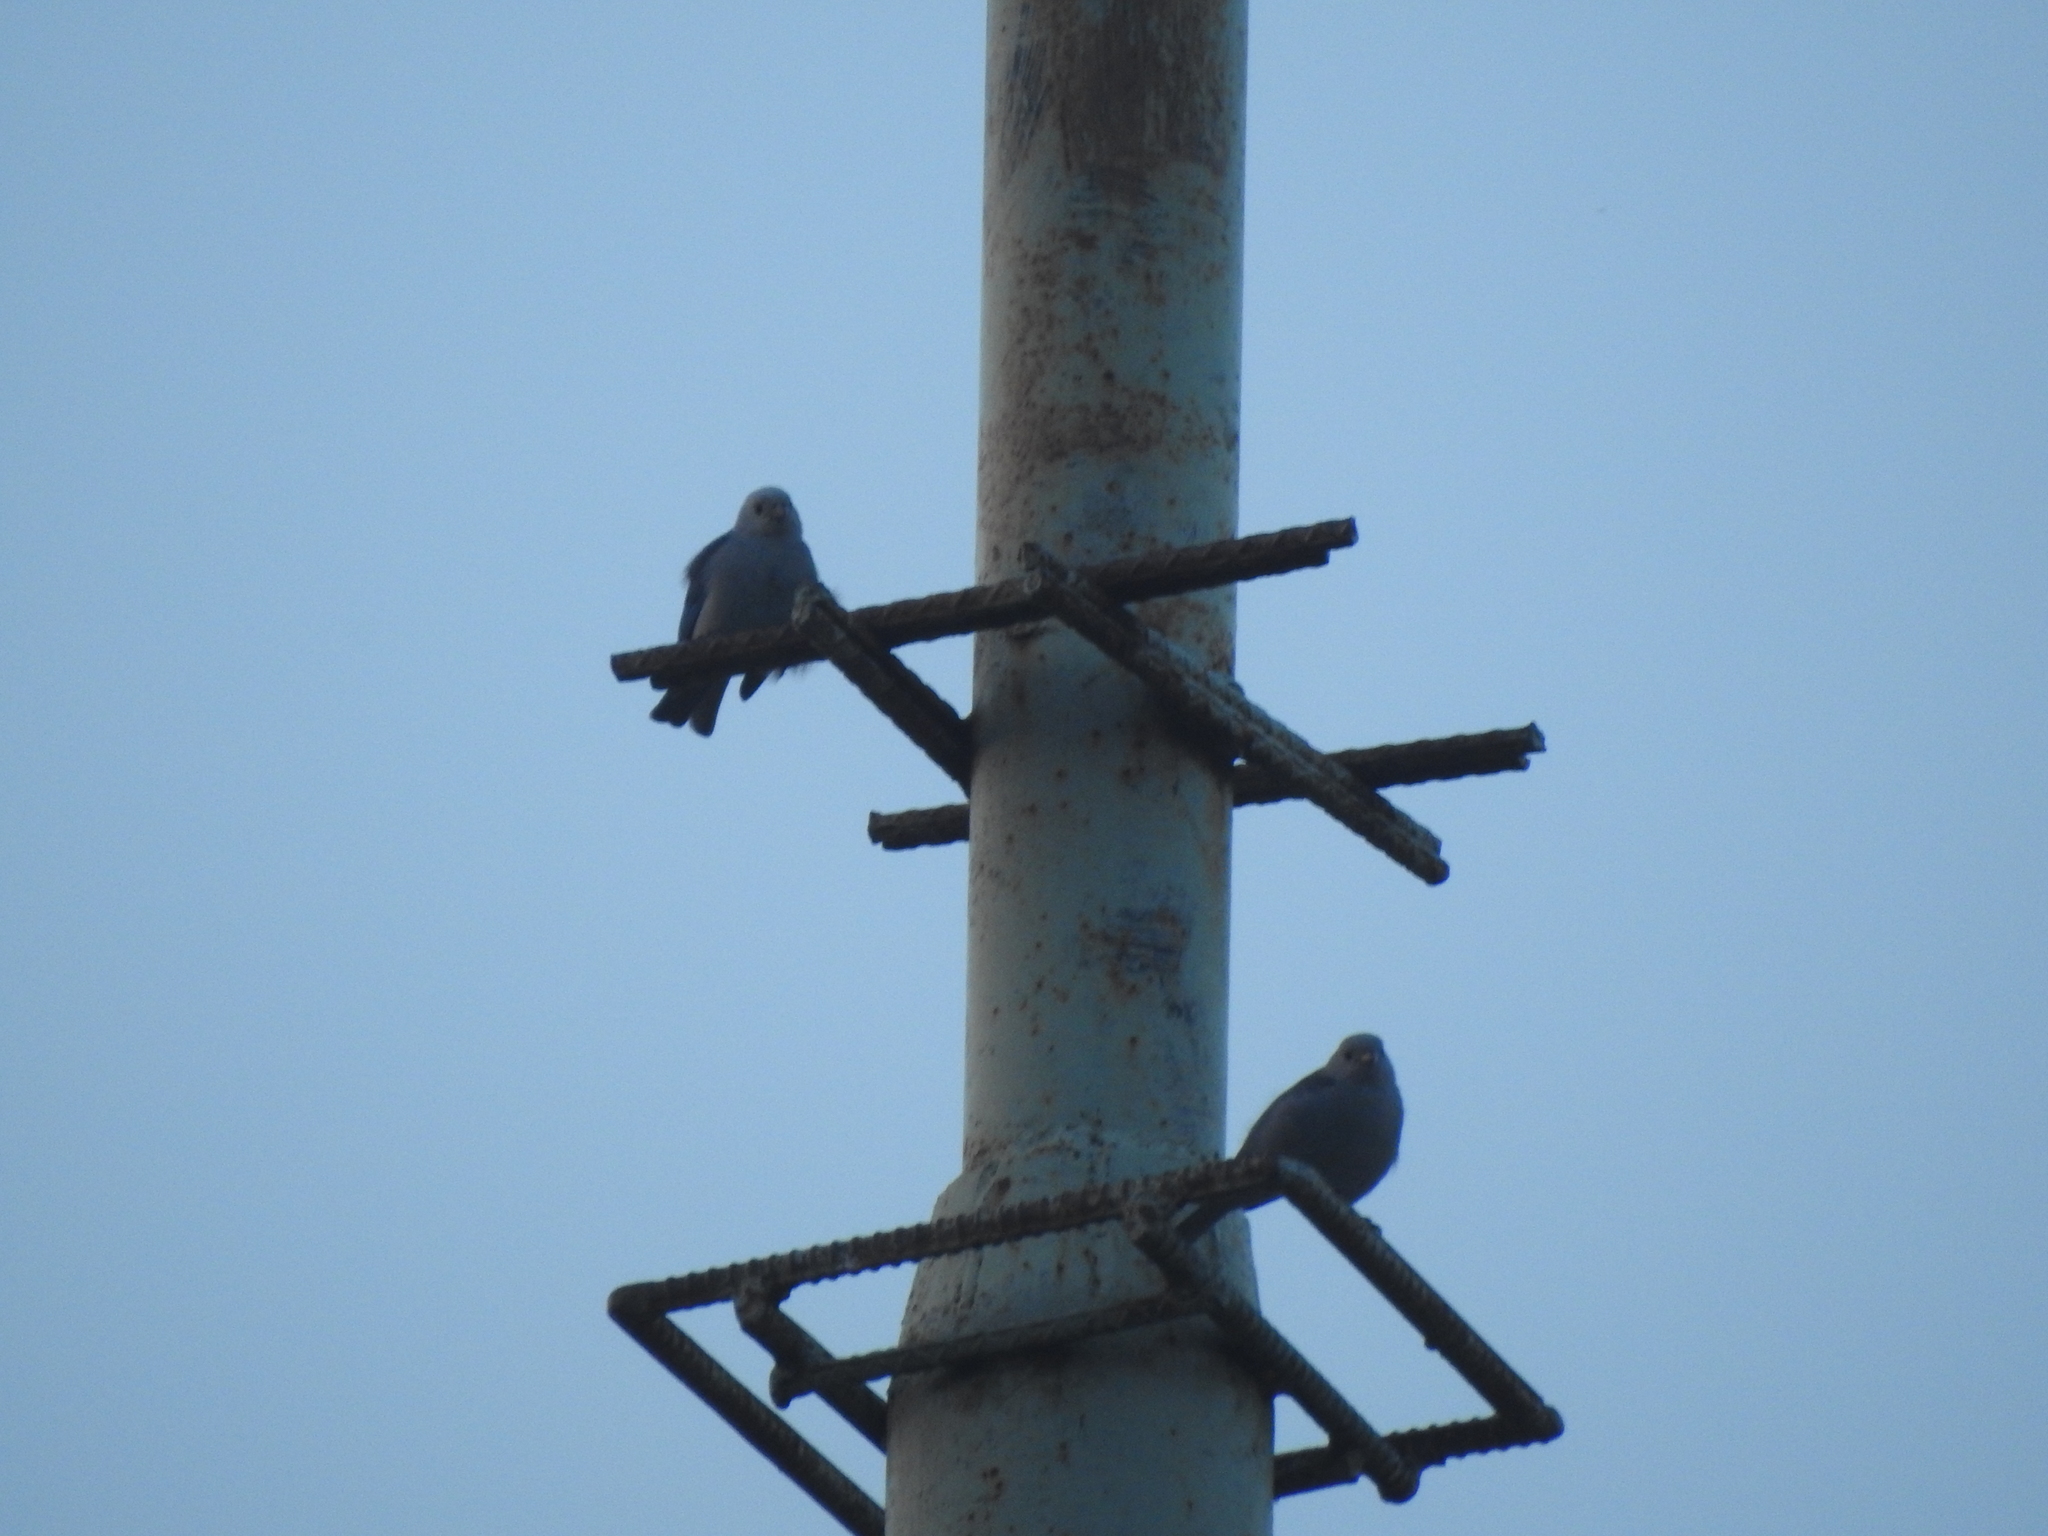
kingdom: Animalia
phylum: Chordata
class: Aves
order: Passeriformes
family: Thraupidae
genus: Thraupis
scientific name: Thraupis episcopus
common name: Blue-grey tanager
